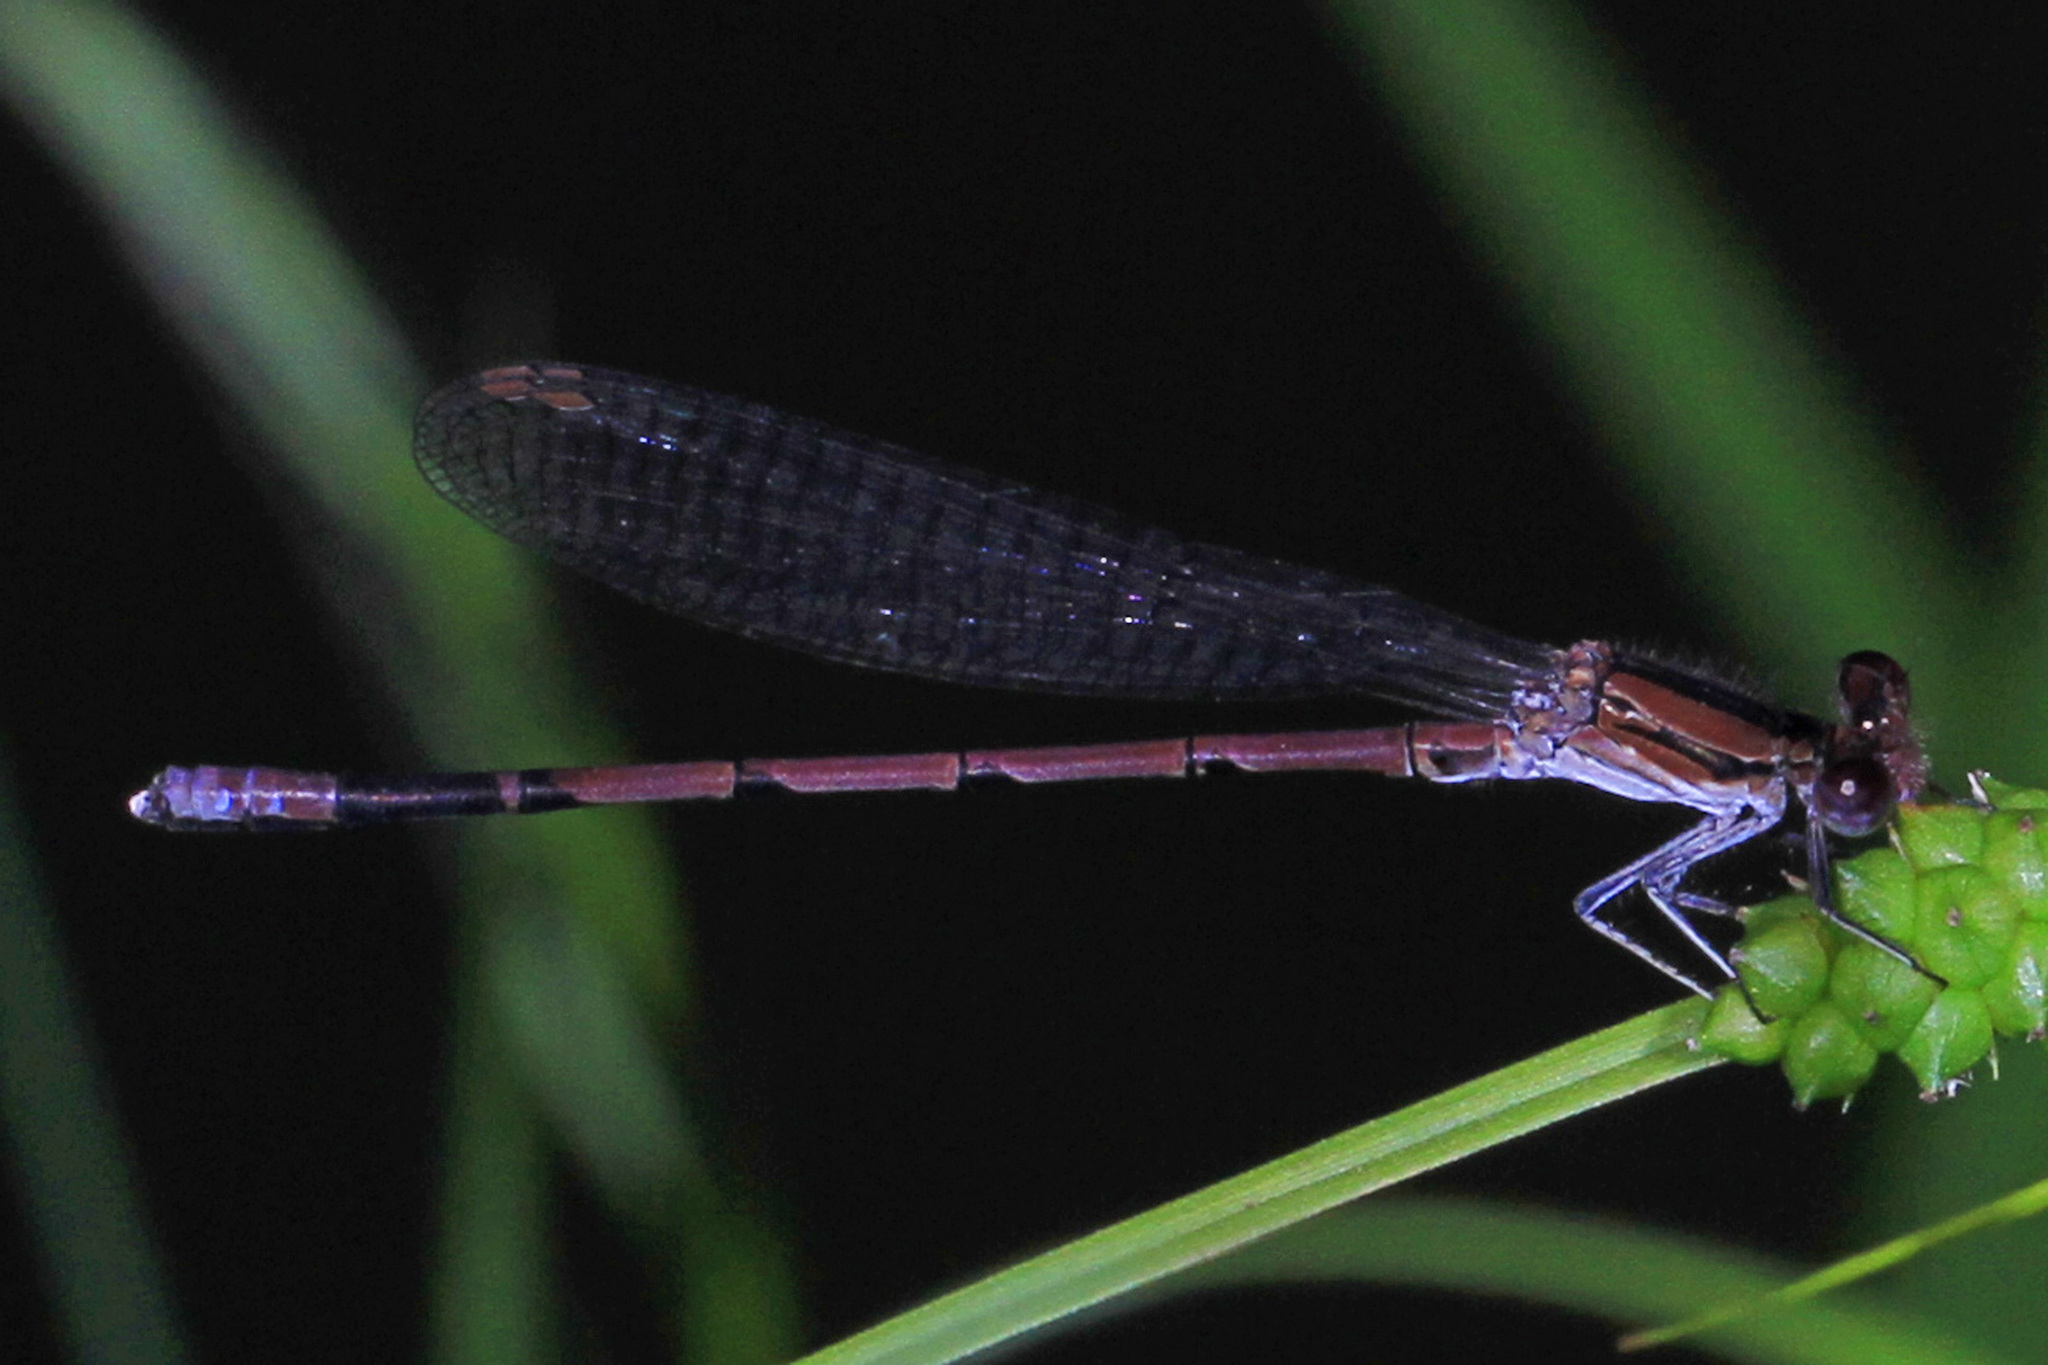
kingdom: Animalia
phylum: Arthropoda
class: Insecta
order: Odonata
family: Coenagrionidae
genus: Argia
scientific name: Argia fumipennis
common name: Variable dancer
